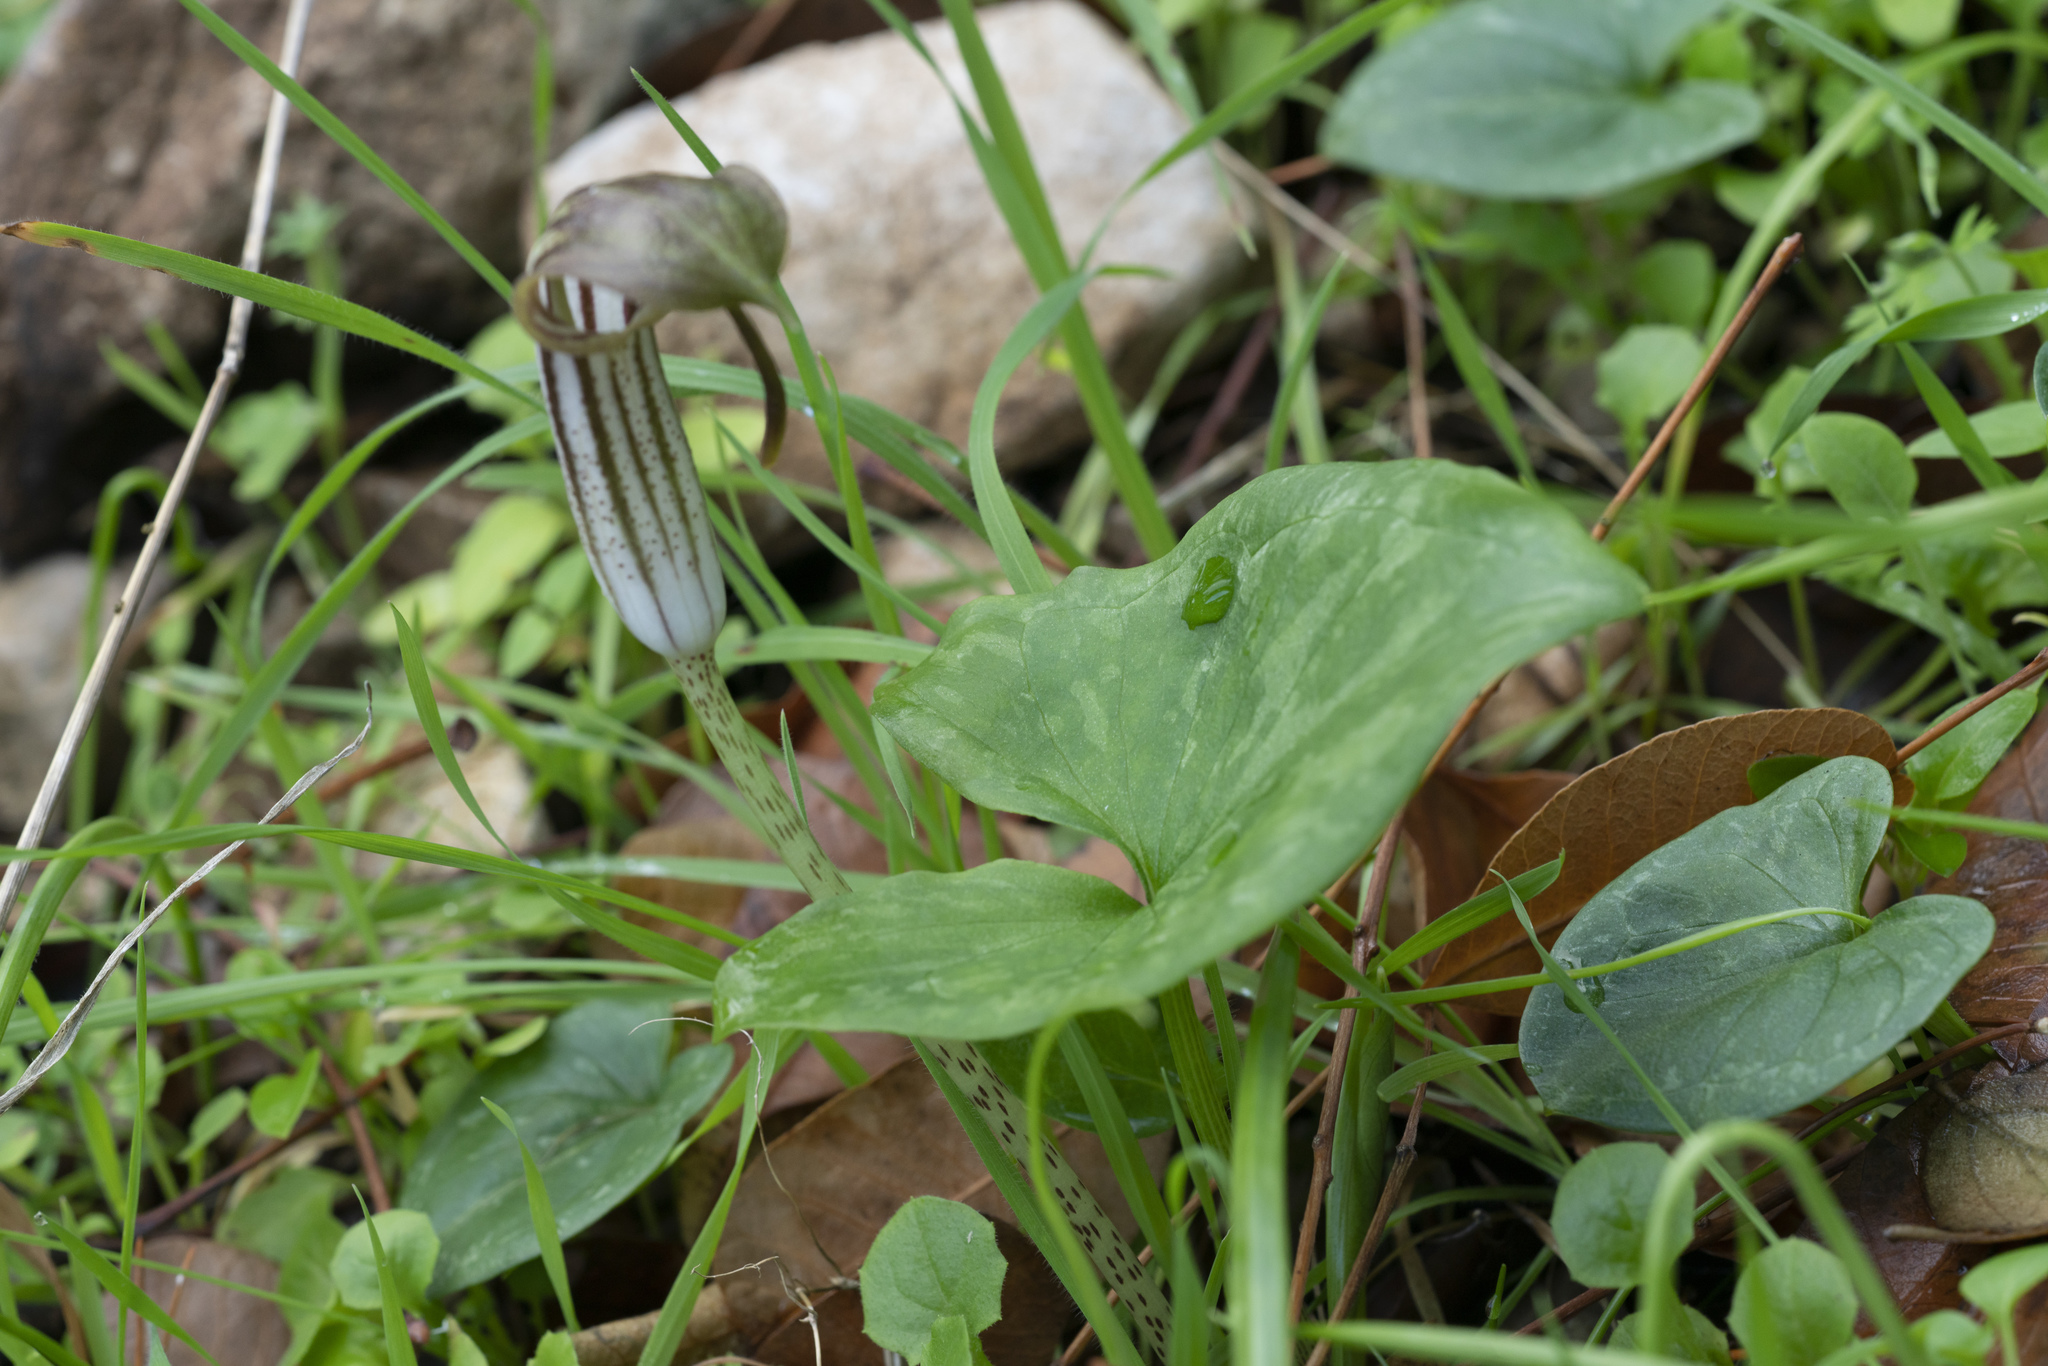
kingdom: Plantae
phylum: Tracheophyta
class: Liliopsida
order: Alismatales
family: Araceae
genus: Arisarum
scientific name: Arisarum vulgare
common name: Common arisarum
